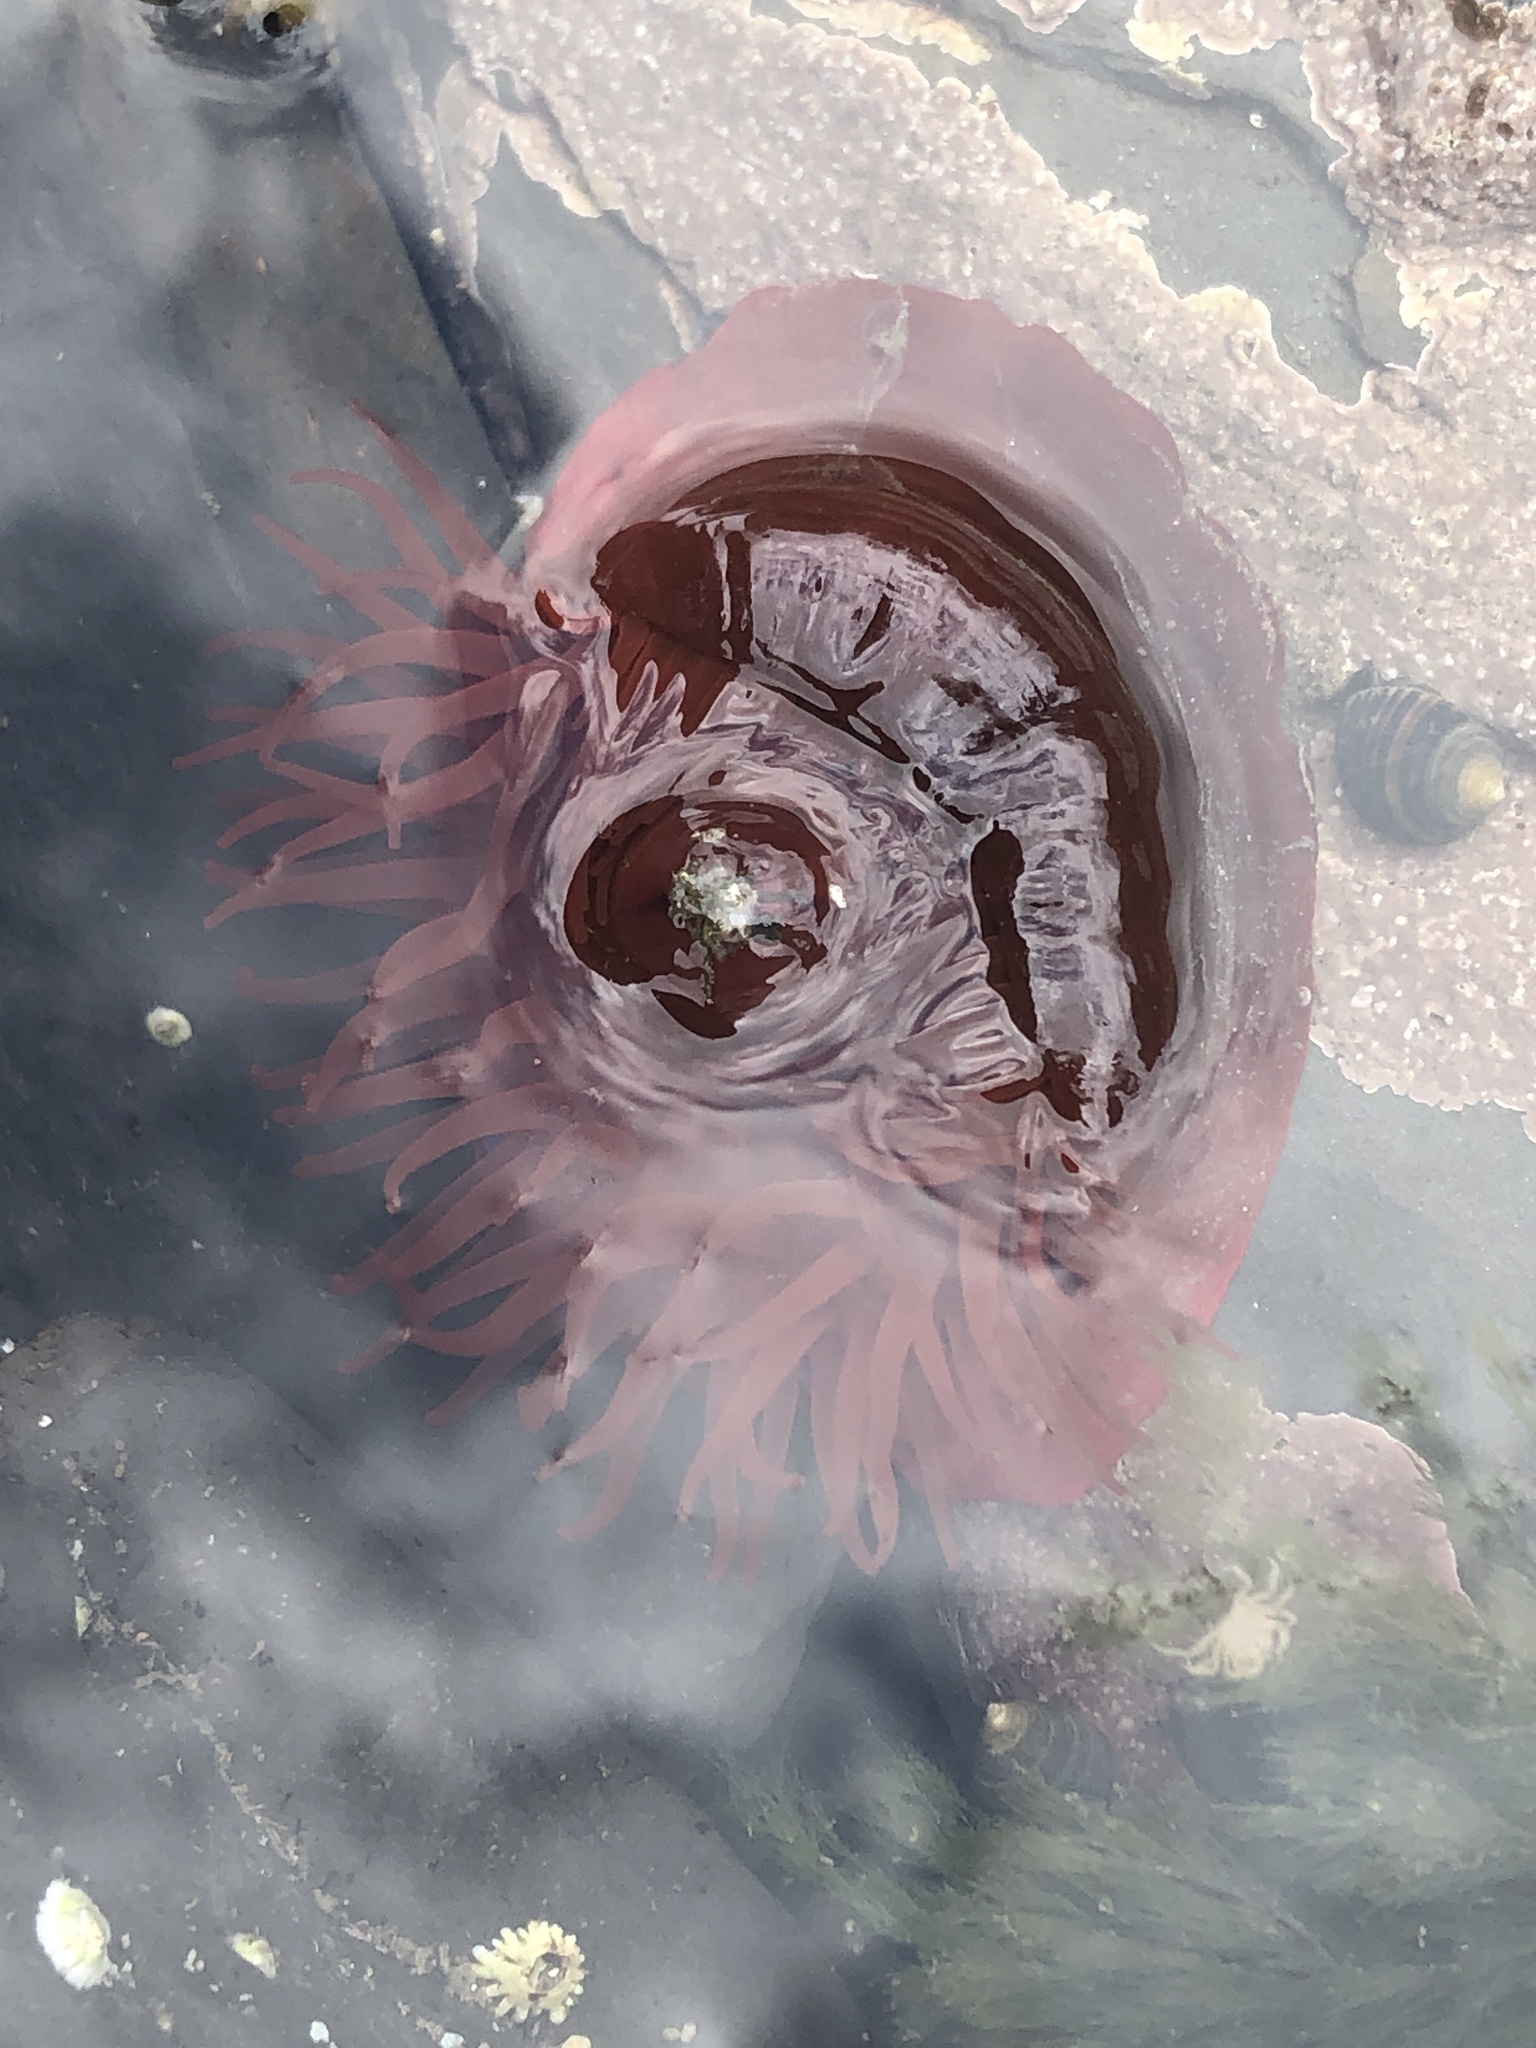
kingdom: Animalia
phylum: Cnidaria
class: Anthozoa
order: Actiniaria
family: Actiniidae
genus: Actinia
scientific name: Actinia equina
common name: Beadlet anemone
